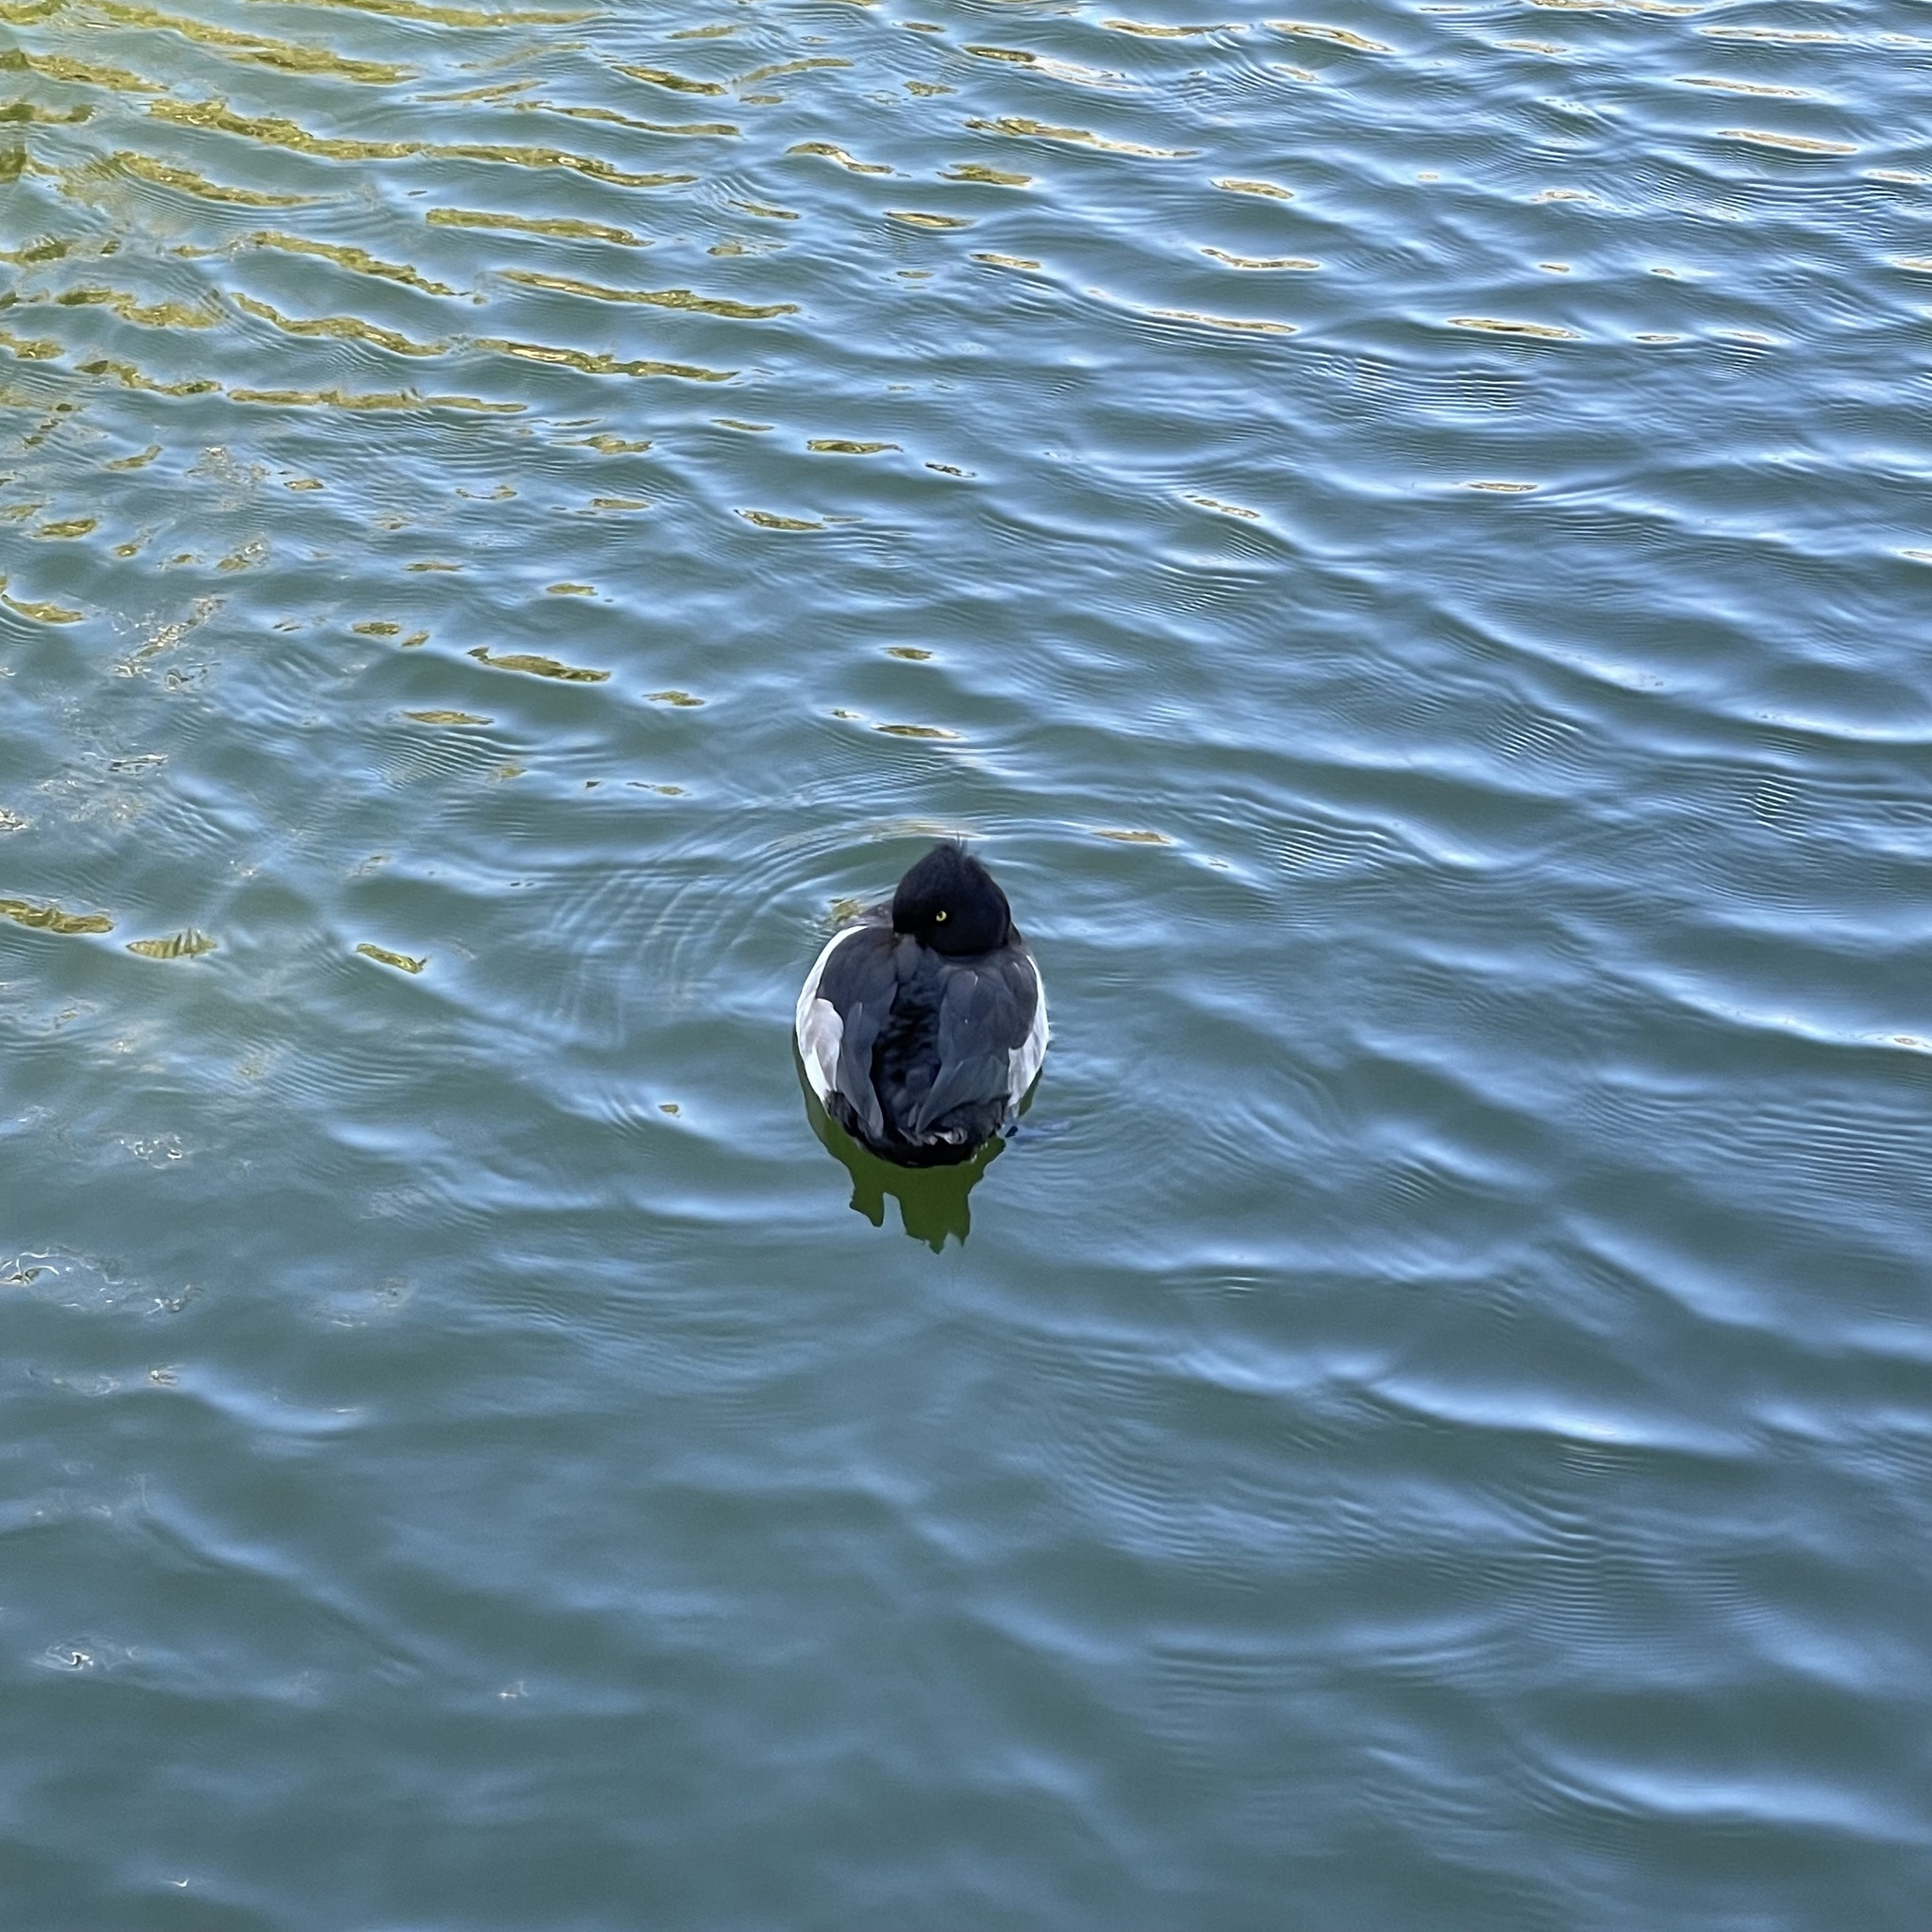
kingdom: Animalia
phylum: Chordata
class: Aves
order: Anseriformes
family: Anatidae
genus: Aythya
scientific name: Aythya fuligula
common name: Tufted duck
